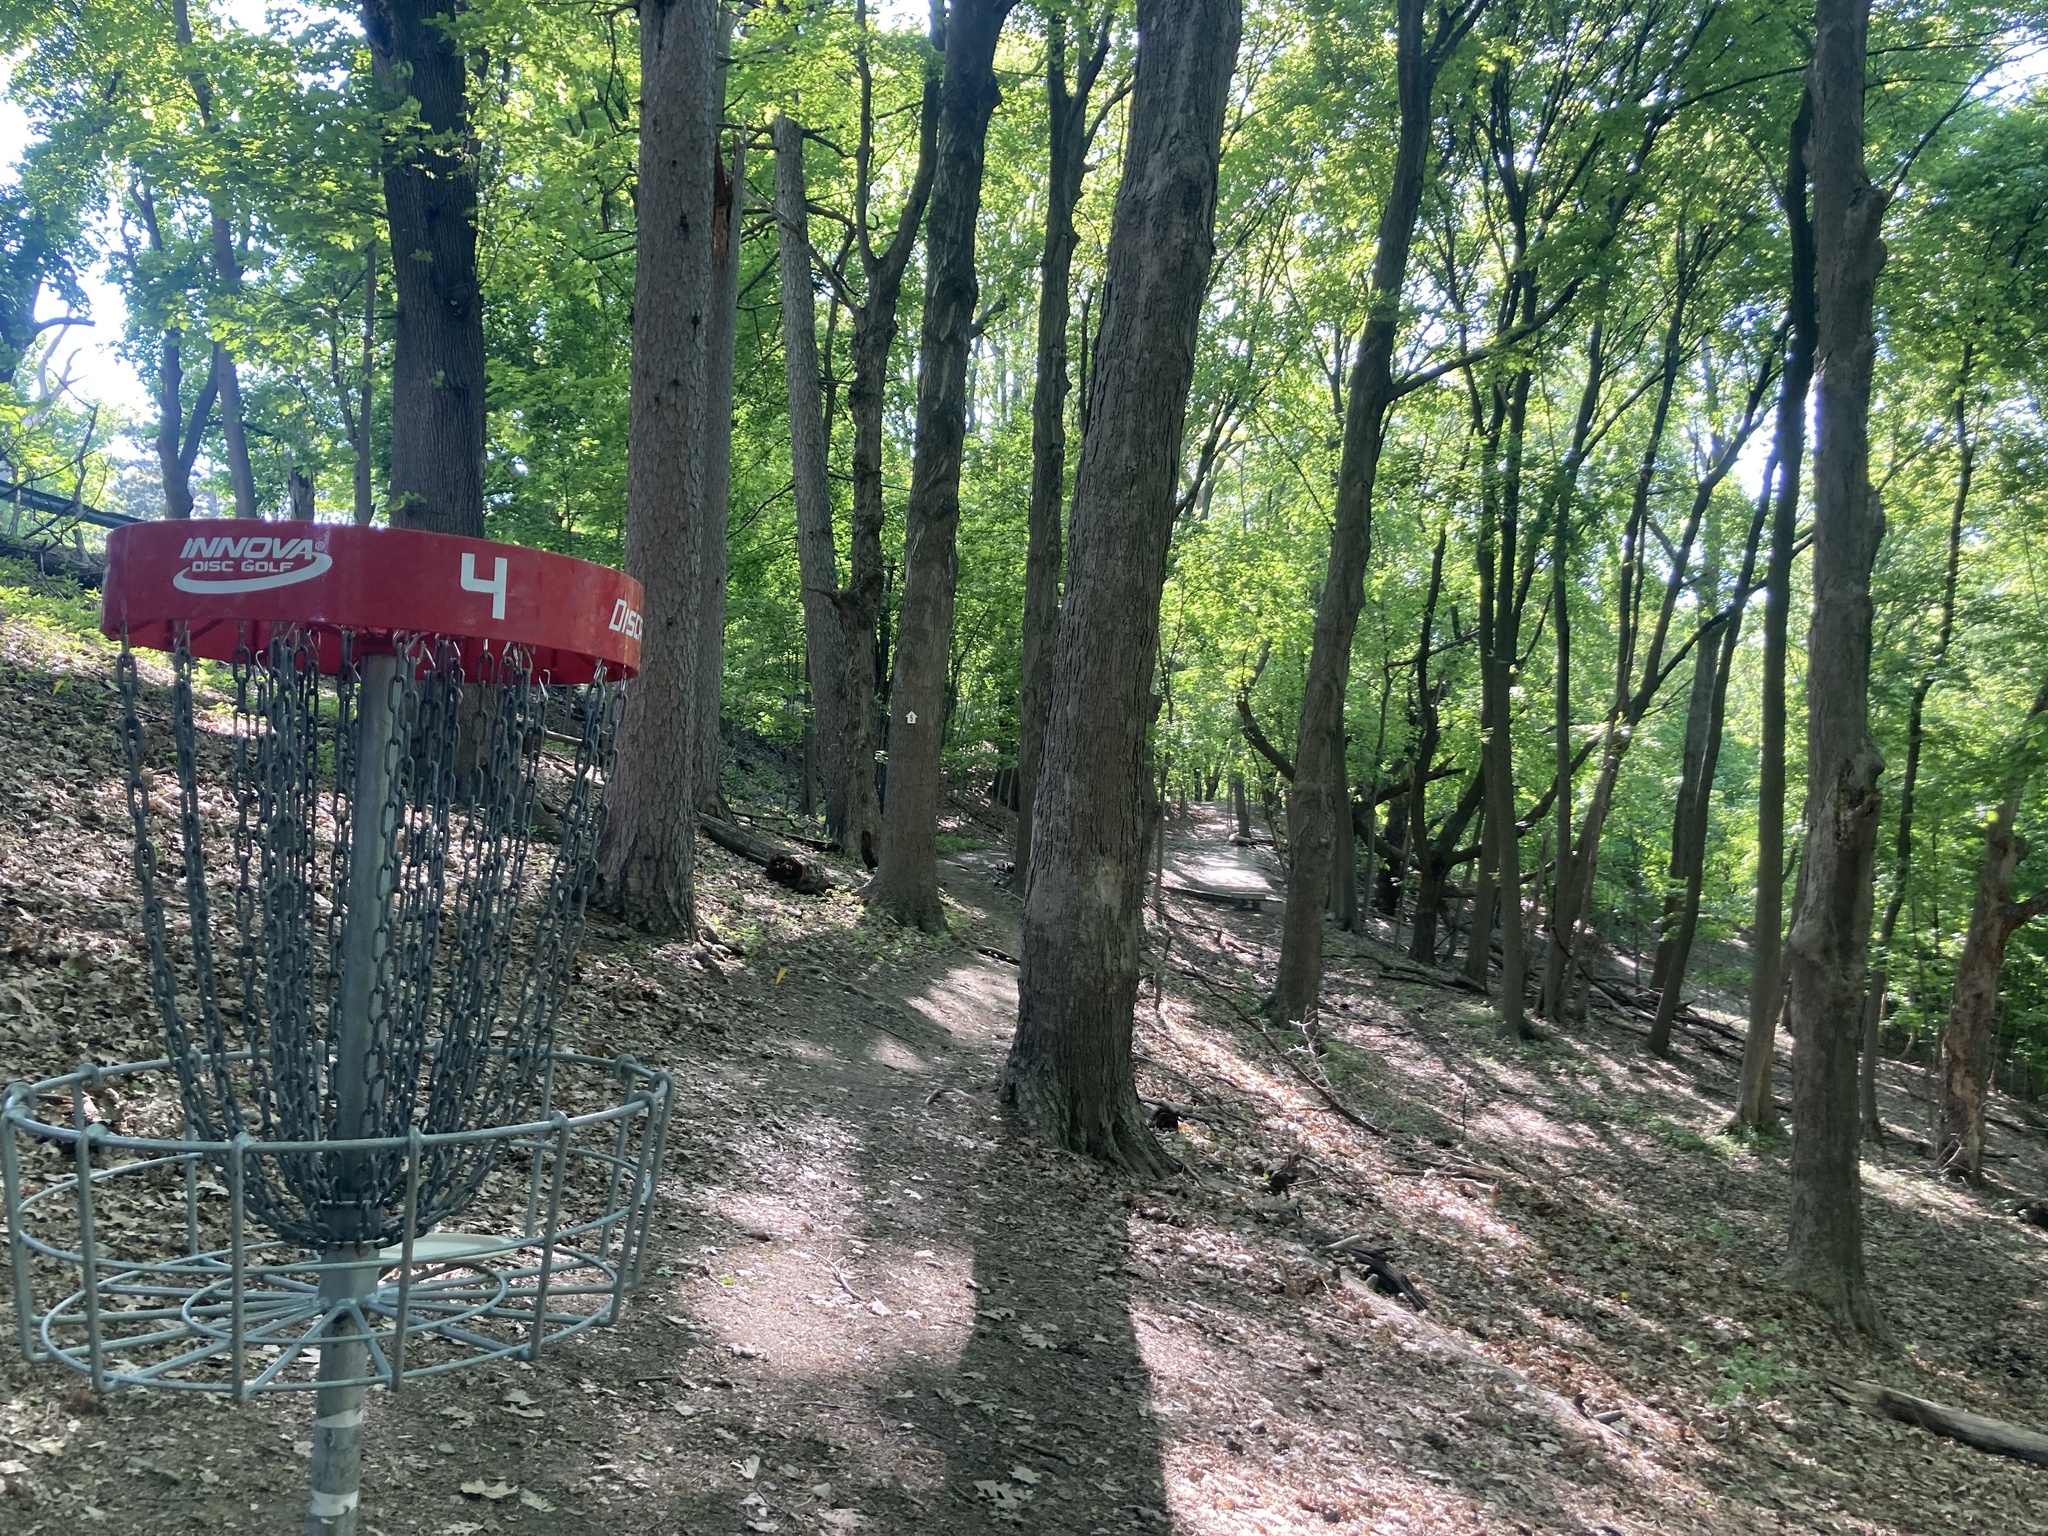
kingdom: Plantae
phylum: Tracheophyta
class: Magnoliopsida
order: Sapindales
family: Sapindaceae
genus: Acer
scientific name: Acer platanoides
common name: Norway maple
